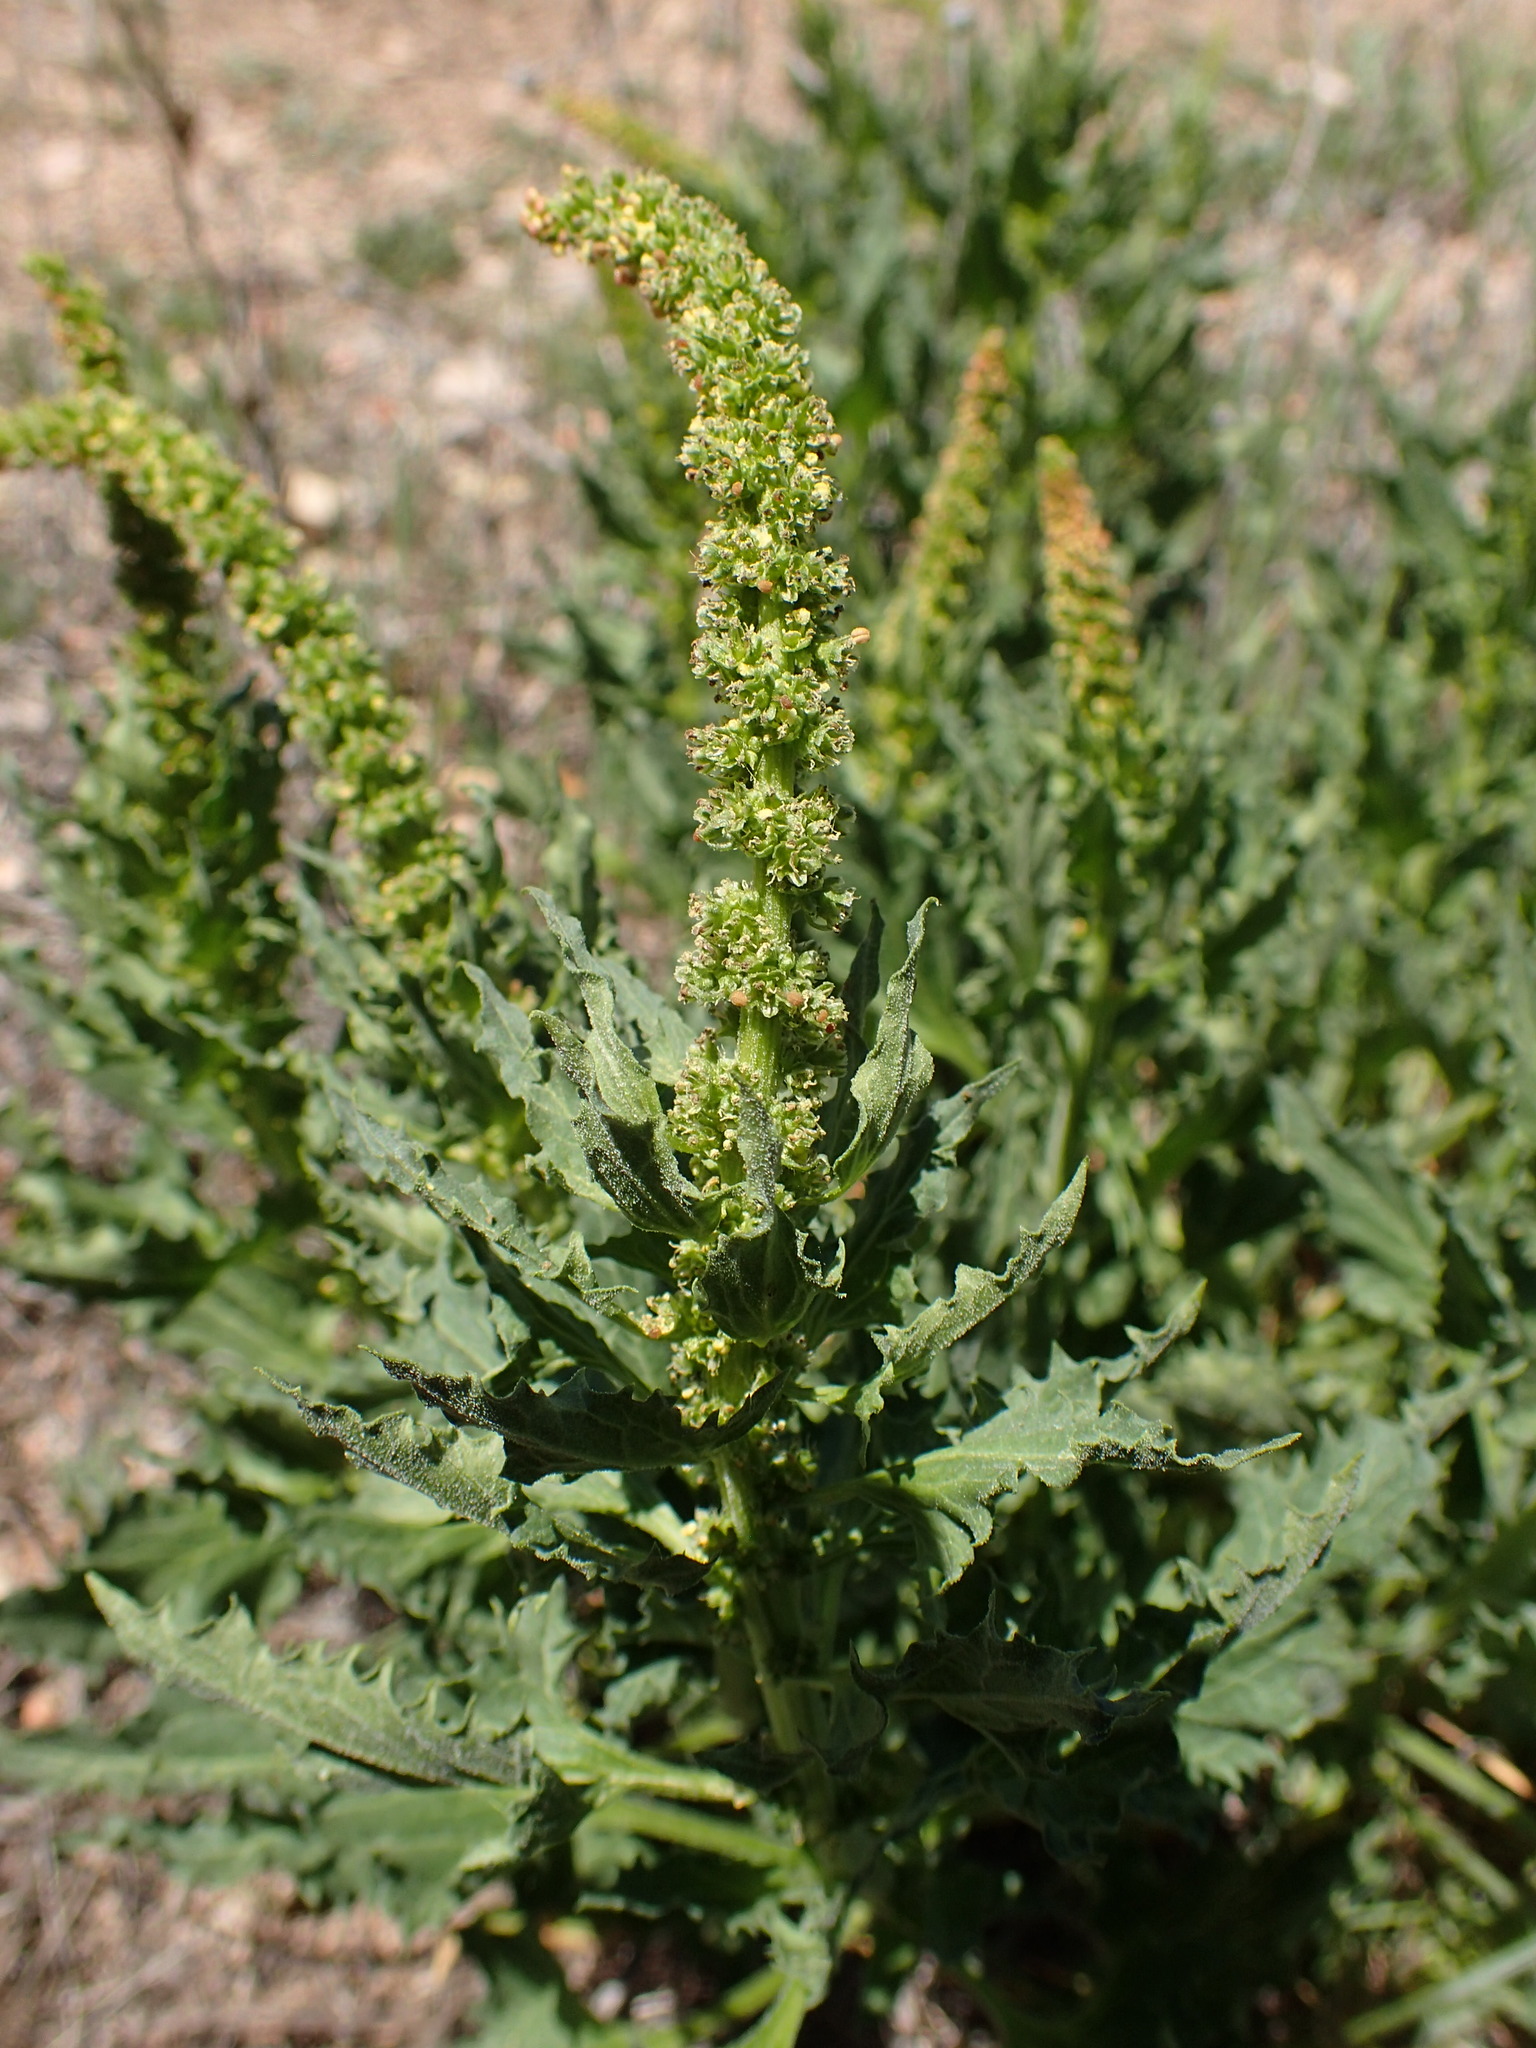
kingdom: Plantae
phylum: Tracheophyta
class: Magnoliopsida
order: Caryophyllales
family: Amaranthaceae
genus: Blitum
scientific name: Blitum californicum
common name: California goosefoot
